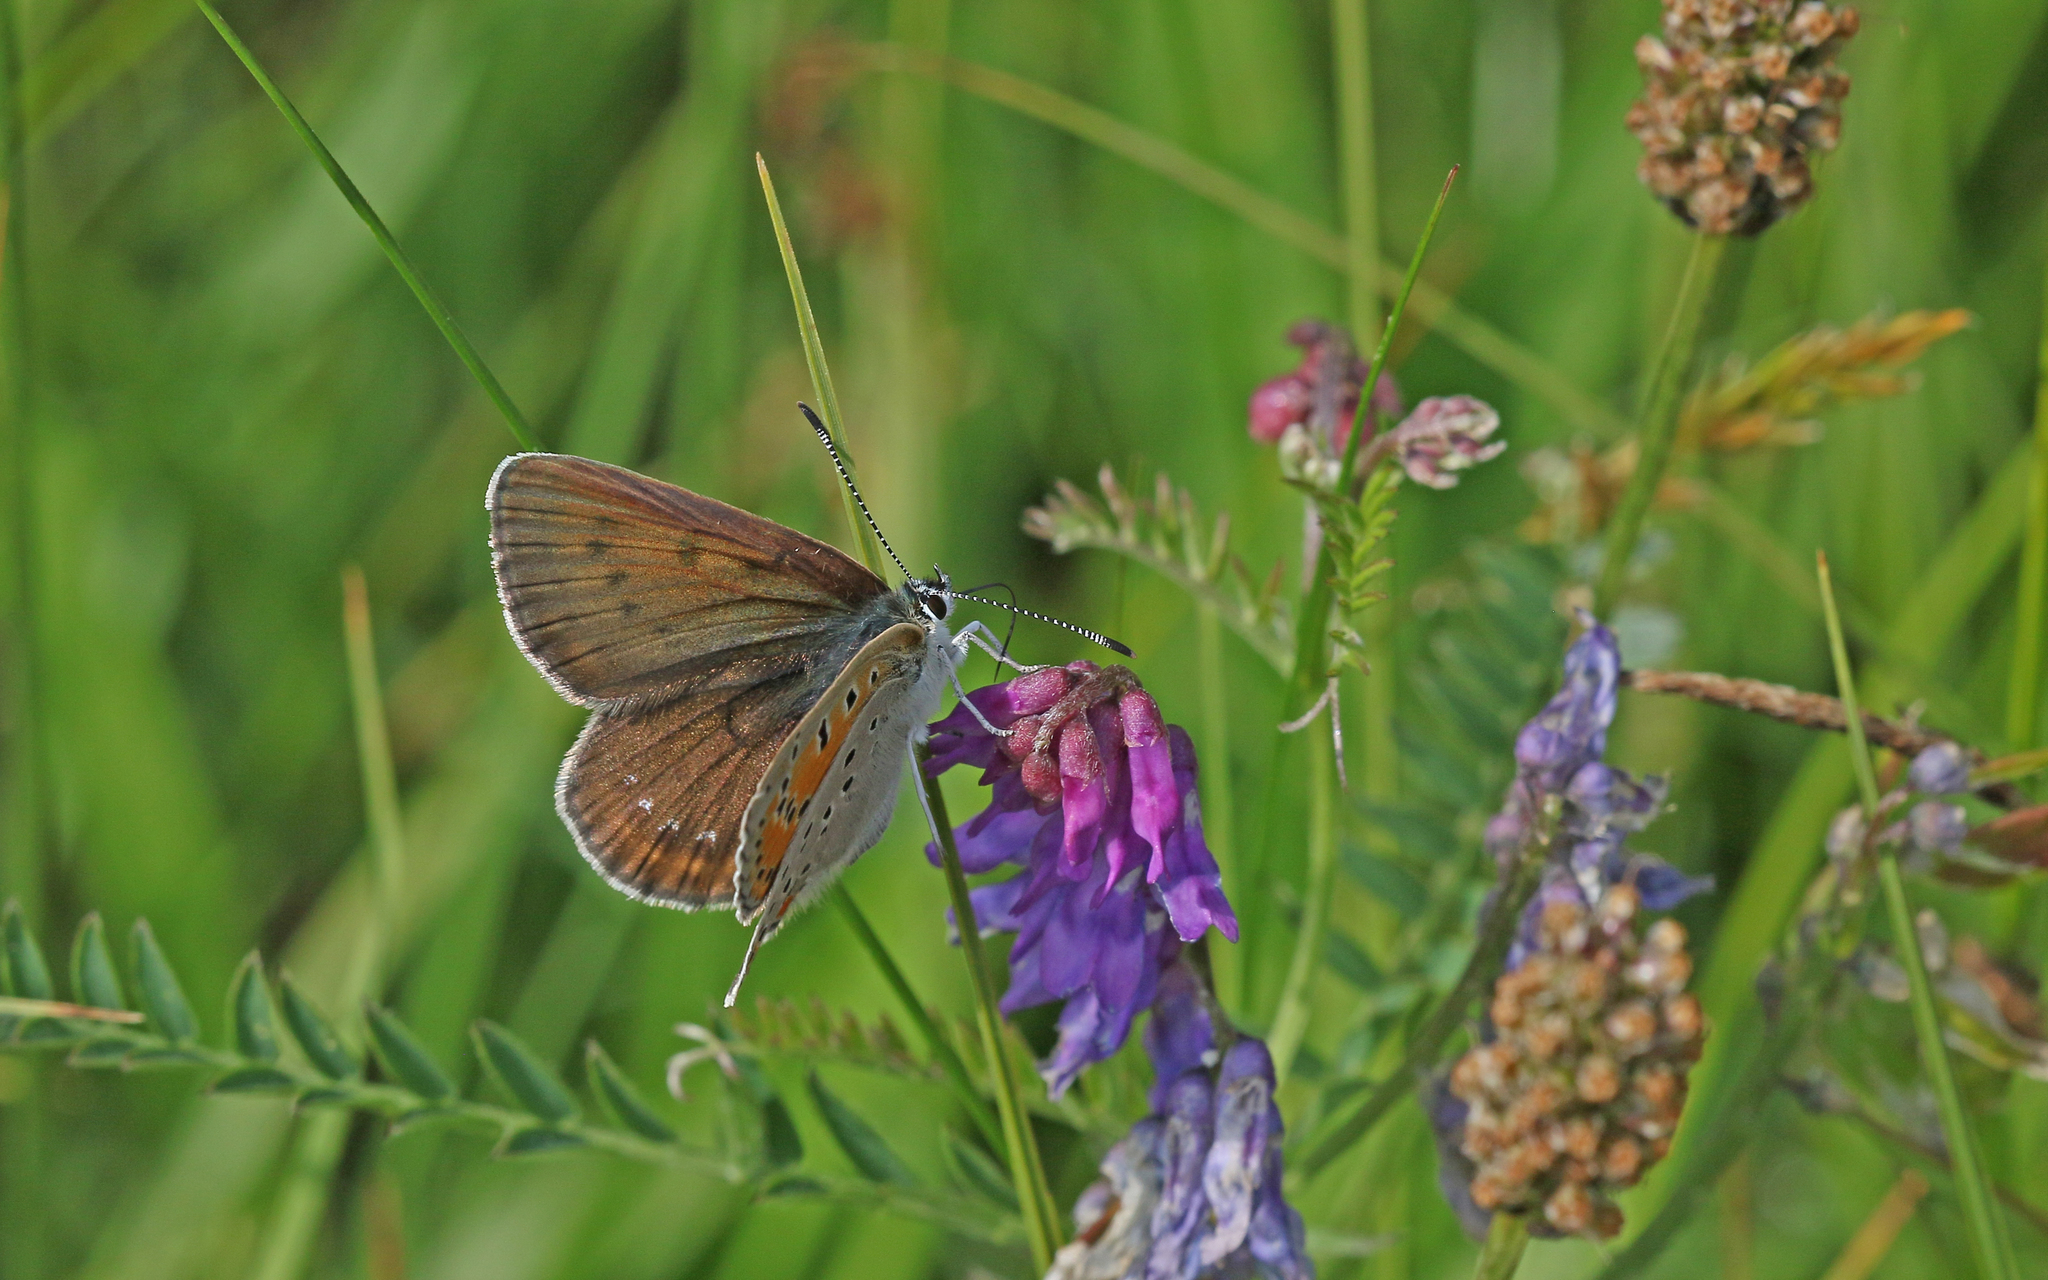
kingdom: Animalia
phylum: Arthropoda
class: Insecta
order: Lepidoptera
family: Lycaenidae
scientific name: Lycaenidae
